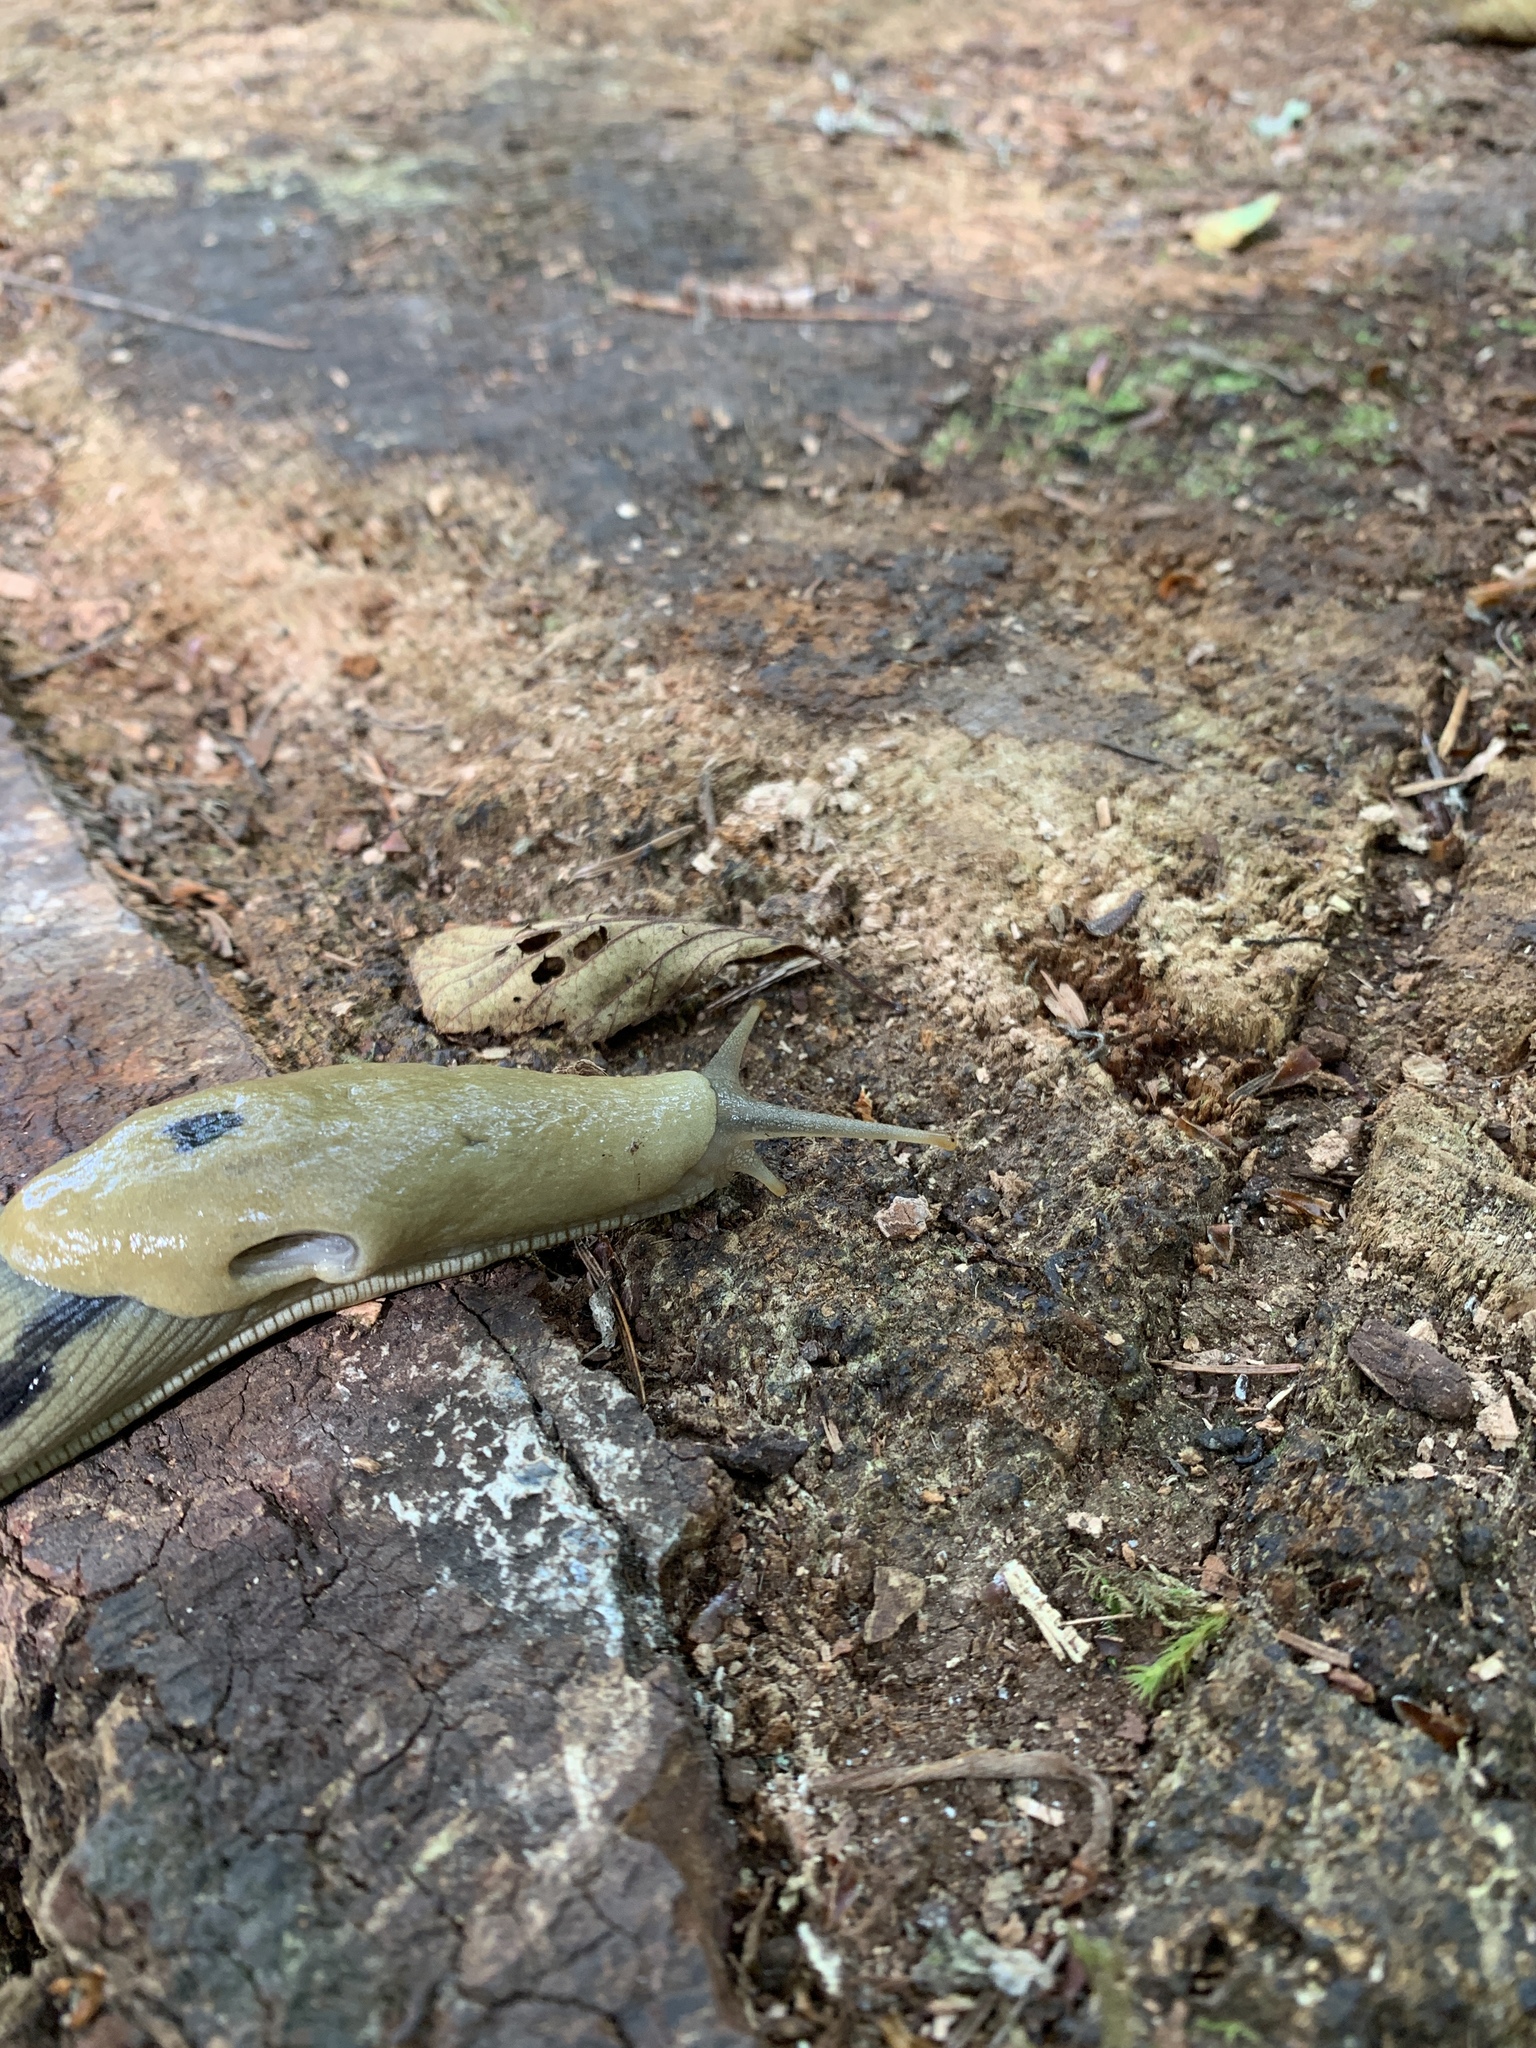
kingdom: Animalia
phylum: Mollusca
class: Gastropoda
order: Stylommatophora
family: Ariolimacidae
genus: Ariolimax
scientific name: Ariolimax columbianus
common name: Pacific banana slug
